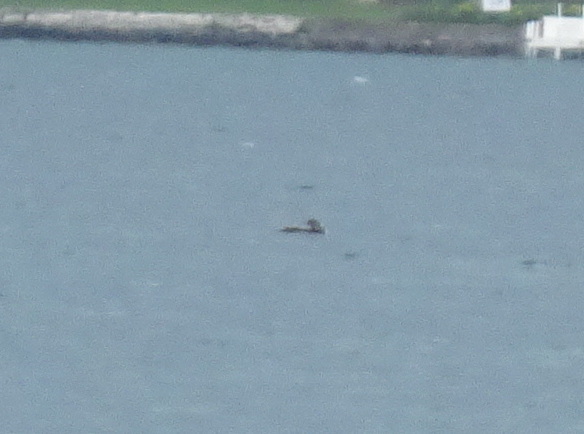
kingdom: Animalia
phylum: Chordata
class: Aves
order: Gaviiformes
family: Gaviidae
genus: Gavia
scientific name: Gavia immer
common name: Common loon
